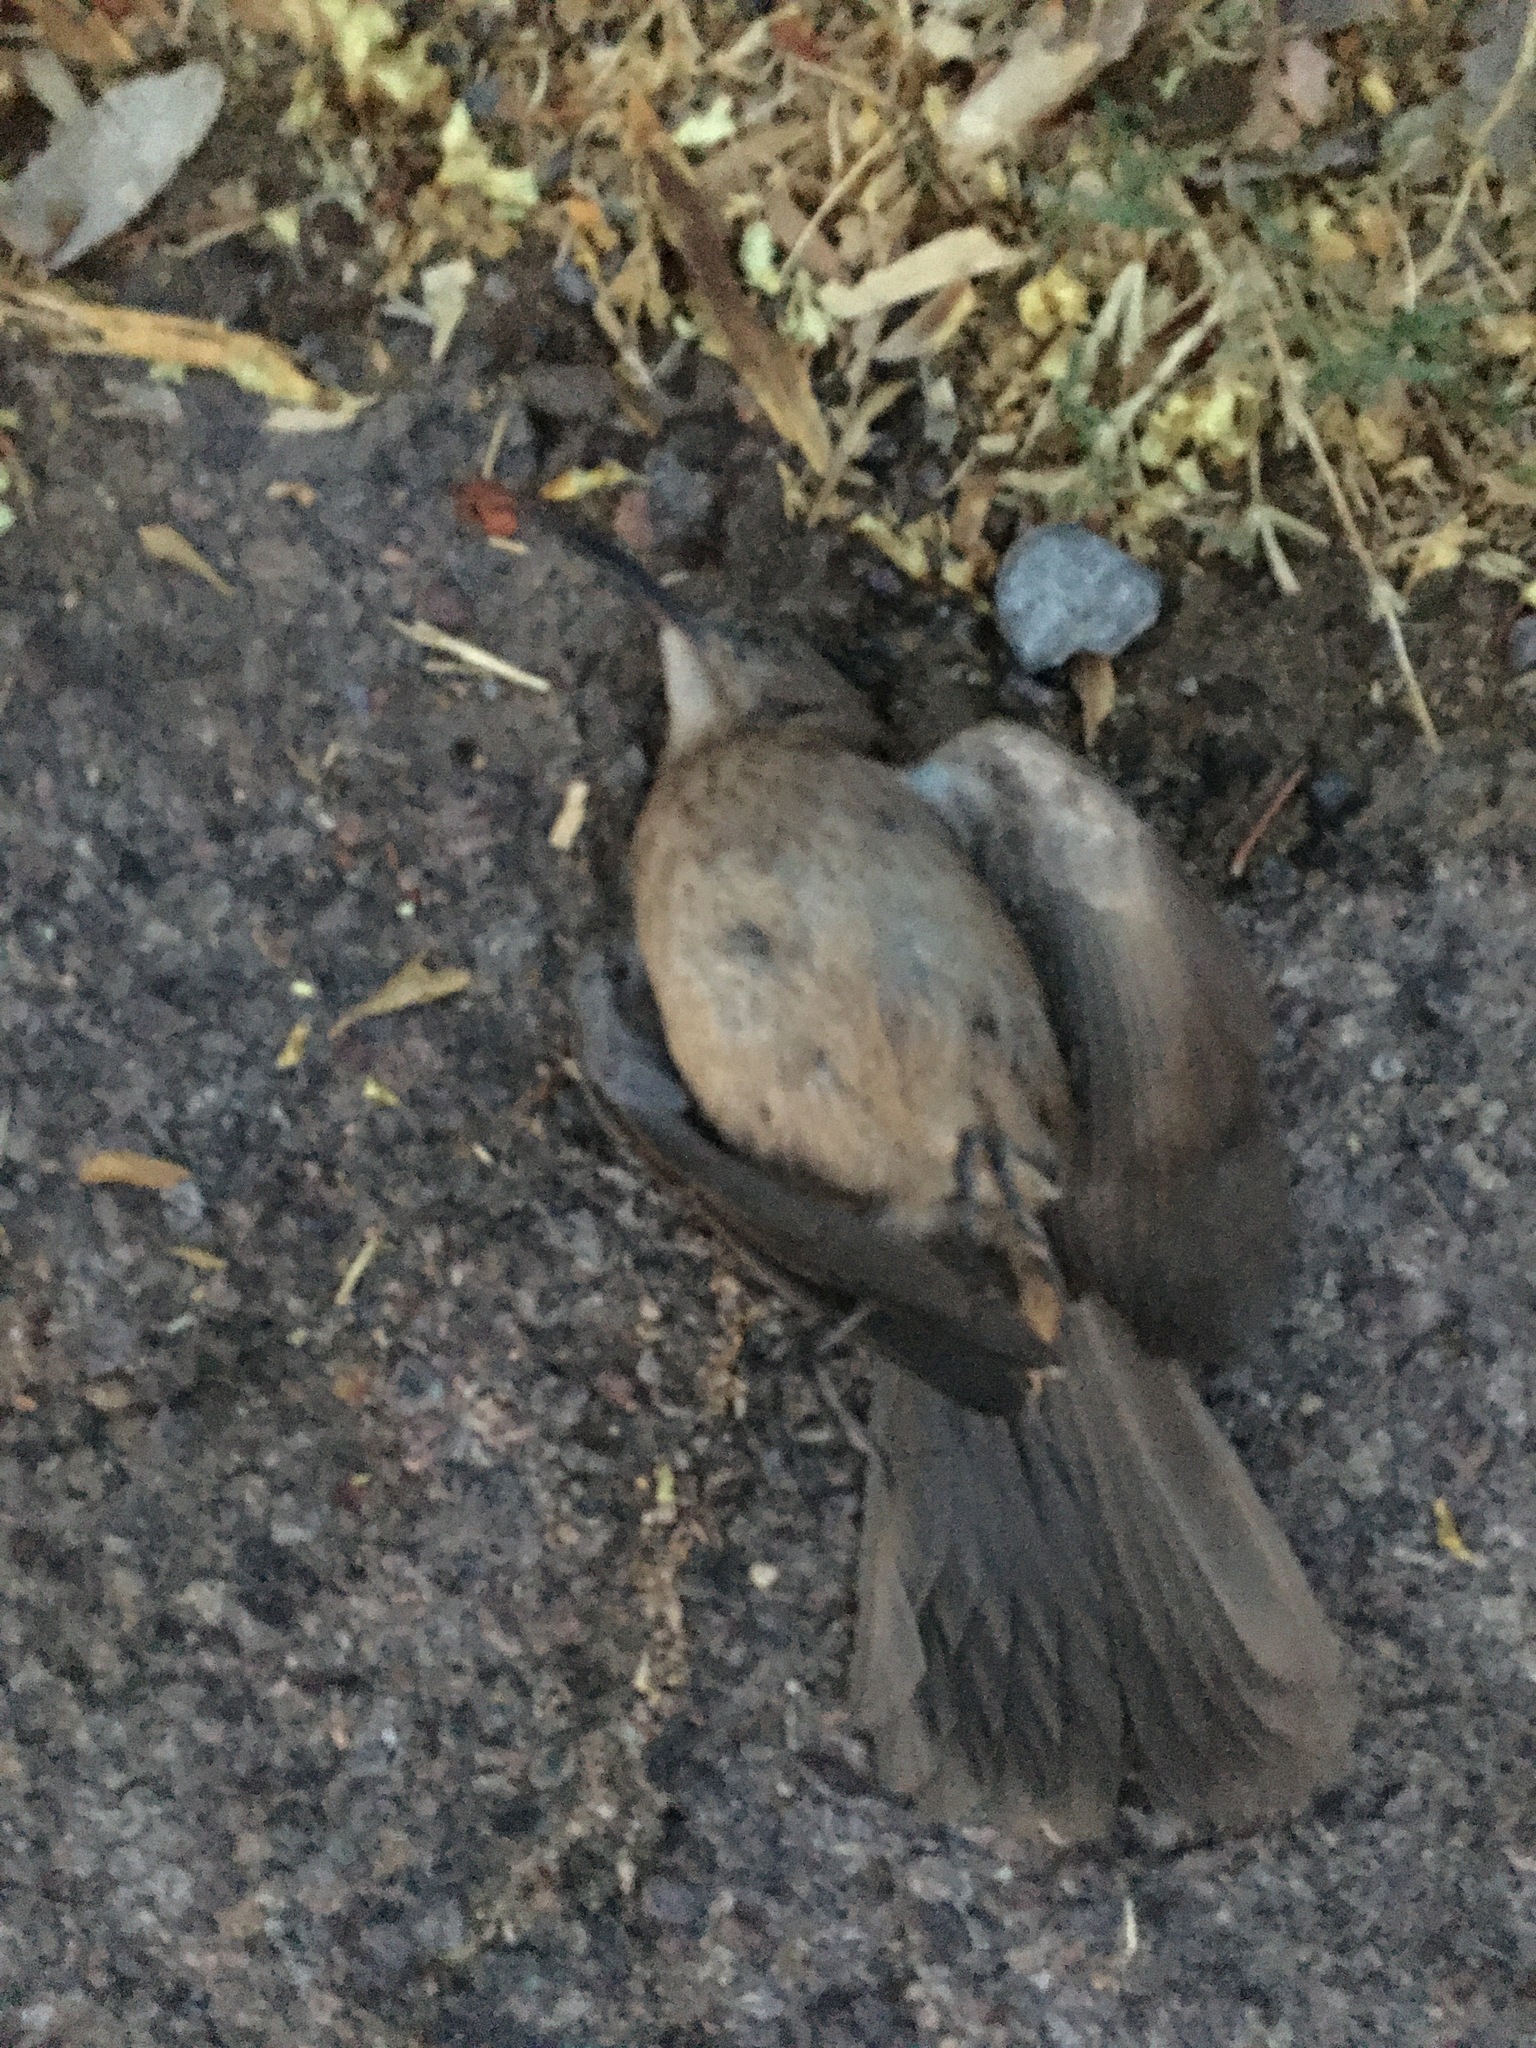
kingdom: Animalia
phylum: Chordata
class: Aves
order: Passeriformes
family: Mimidae
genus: Toxostoma
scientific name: Toxostoma curvirostre
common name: Curve-billed thrasher
